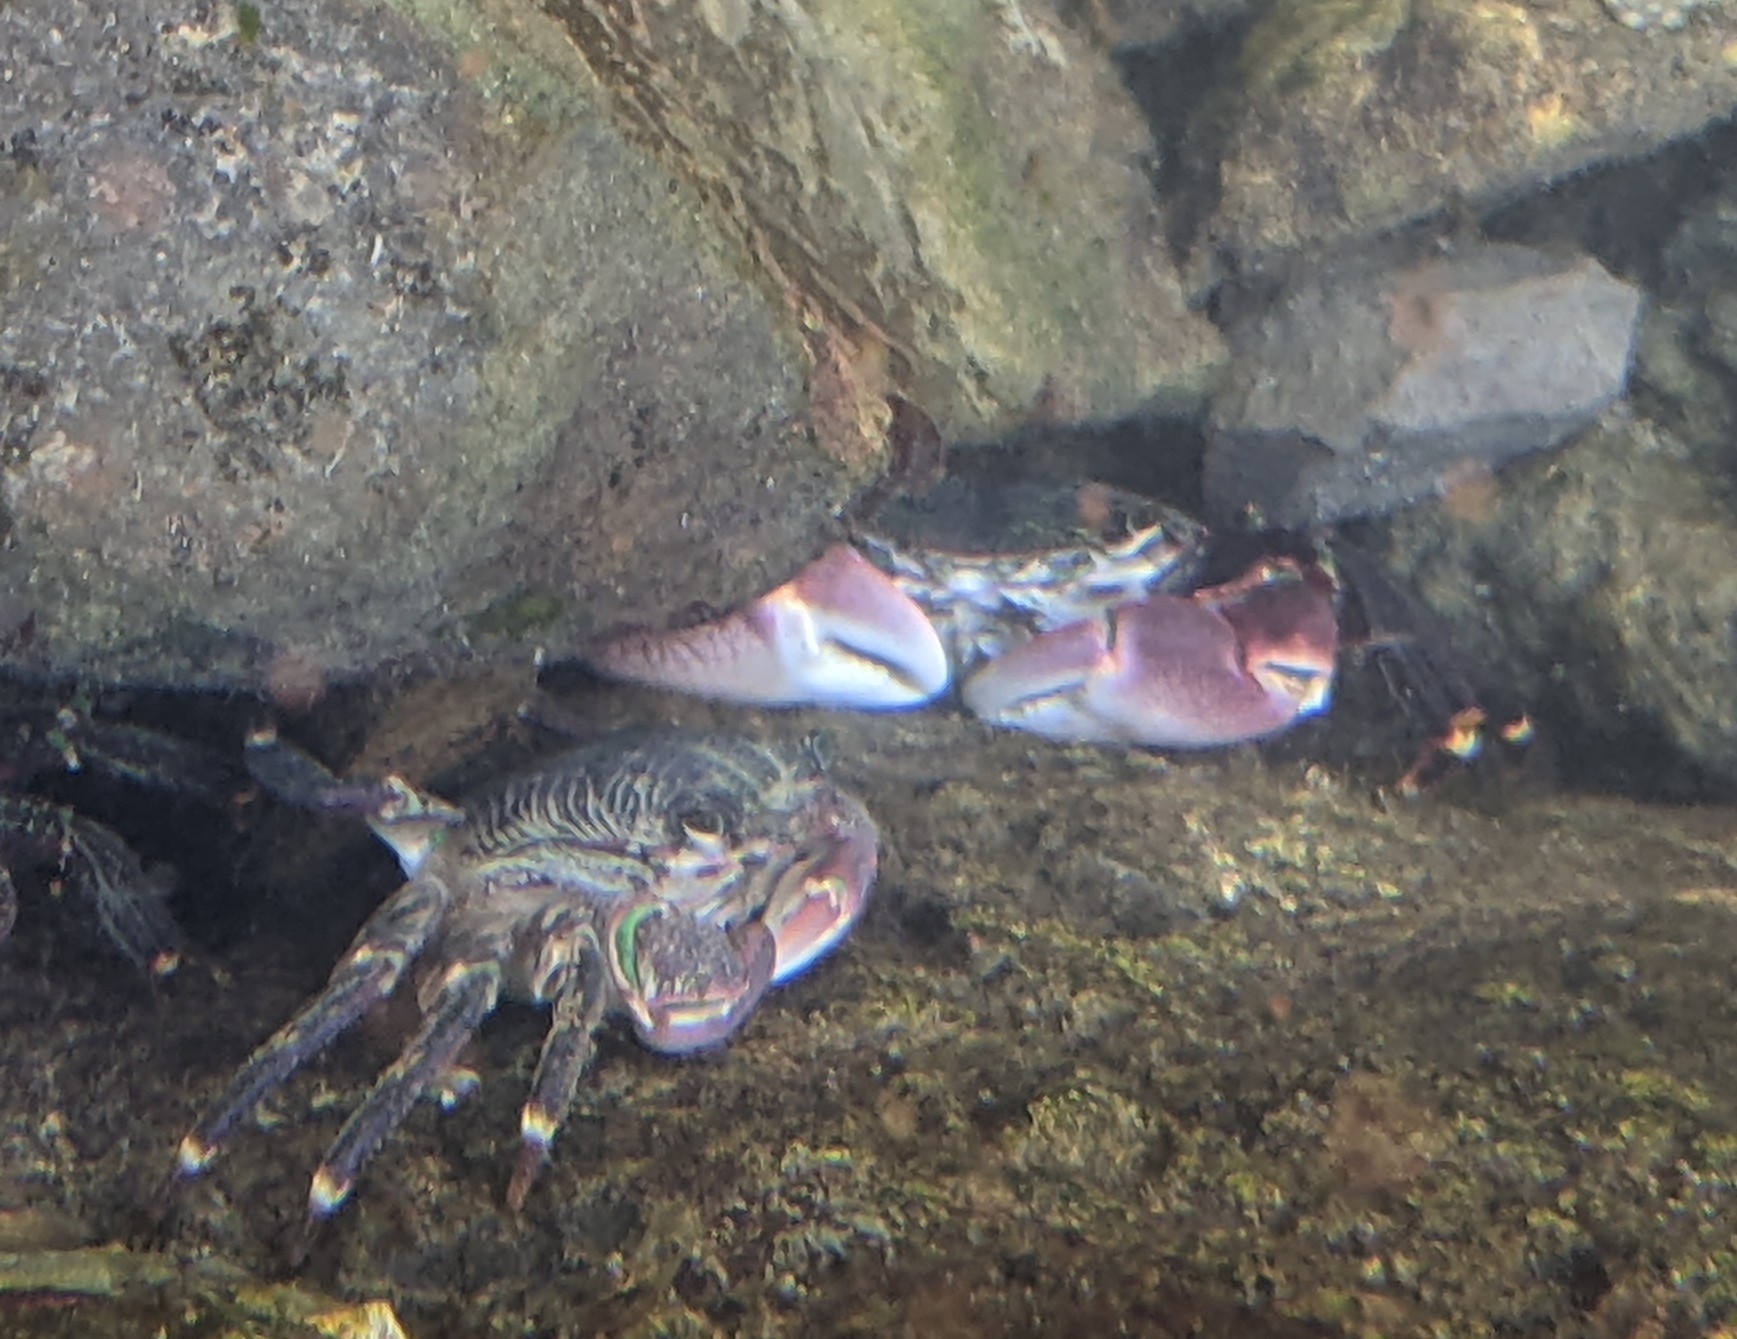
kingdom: Animalia
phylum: Arthropoda
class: Malacostraca
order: Decapoda
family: Grapsidae
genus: Pachygrapsus
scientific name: Pachygrapsus crassipes
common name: Striped shore crab
